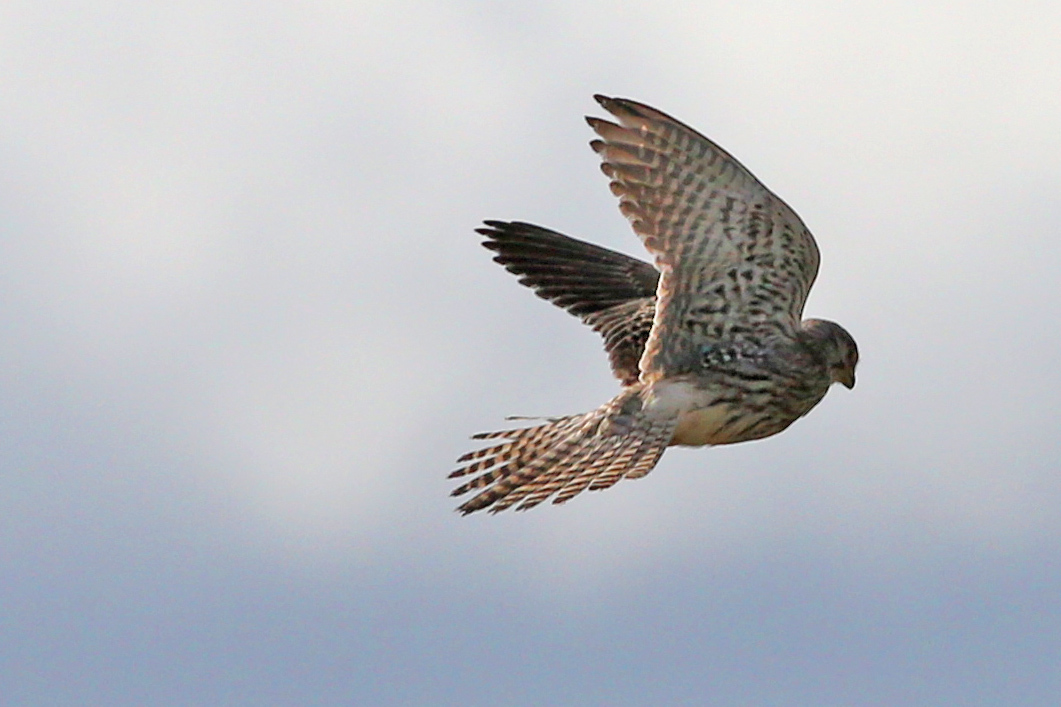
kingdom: Animalia
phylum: Chordata
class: Aves
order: Falconiformes
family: Falconidae
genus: Falco
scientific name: Falco tinnunculus
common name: Common kestrel
